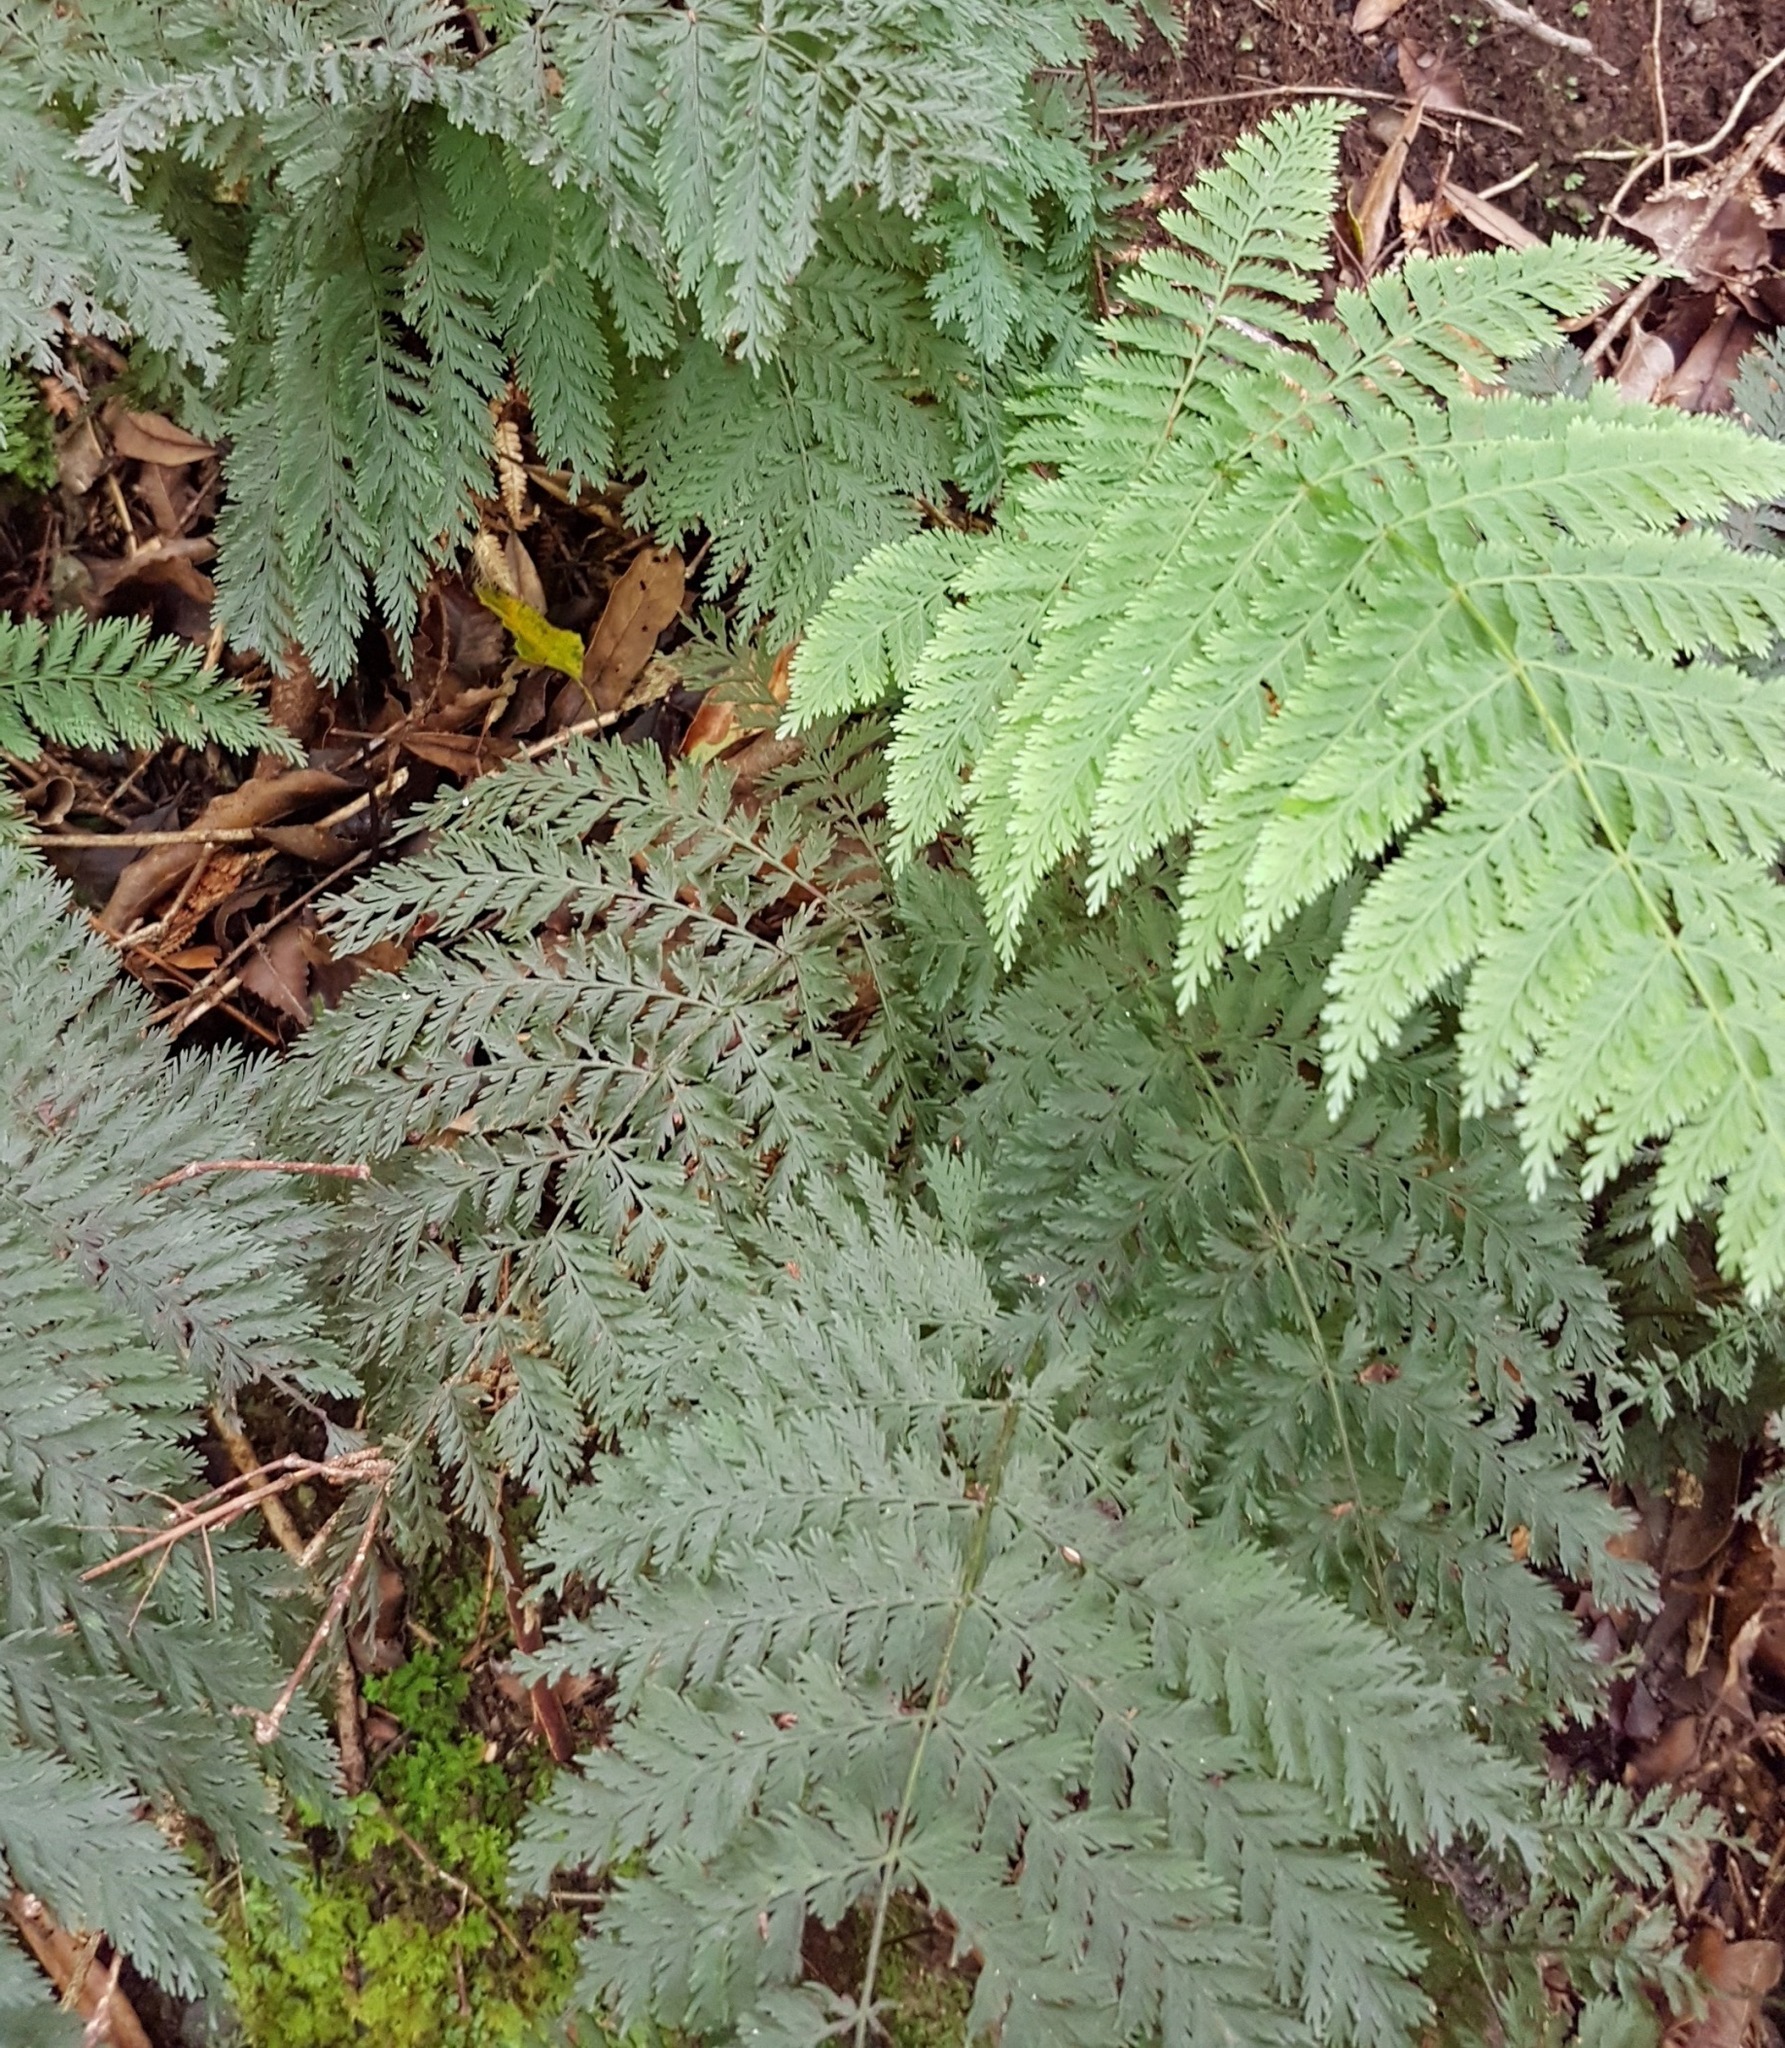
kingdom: Plantae
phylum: Tracheophyta
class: Polypodiopsida
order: Osmundales
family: Osmundaceae
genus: Leptopteris
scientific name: Leptopteris hymenophylloides
